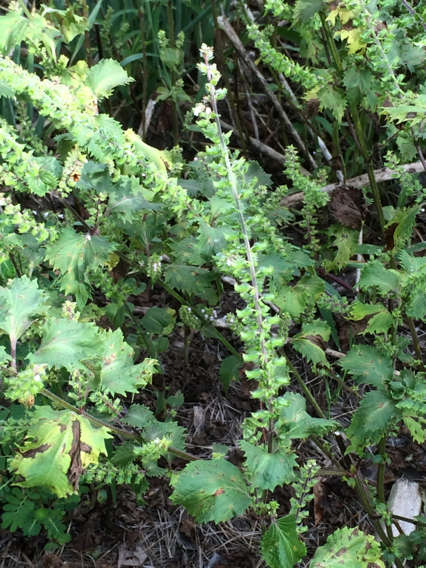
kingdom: Plantae
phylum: Tracheophyta
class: Magnoliopsida
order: Lamiales
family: Lamiaceae
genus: Perilla
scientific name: Perilla frutescens
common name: Perilla
